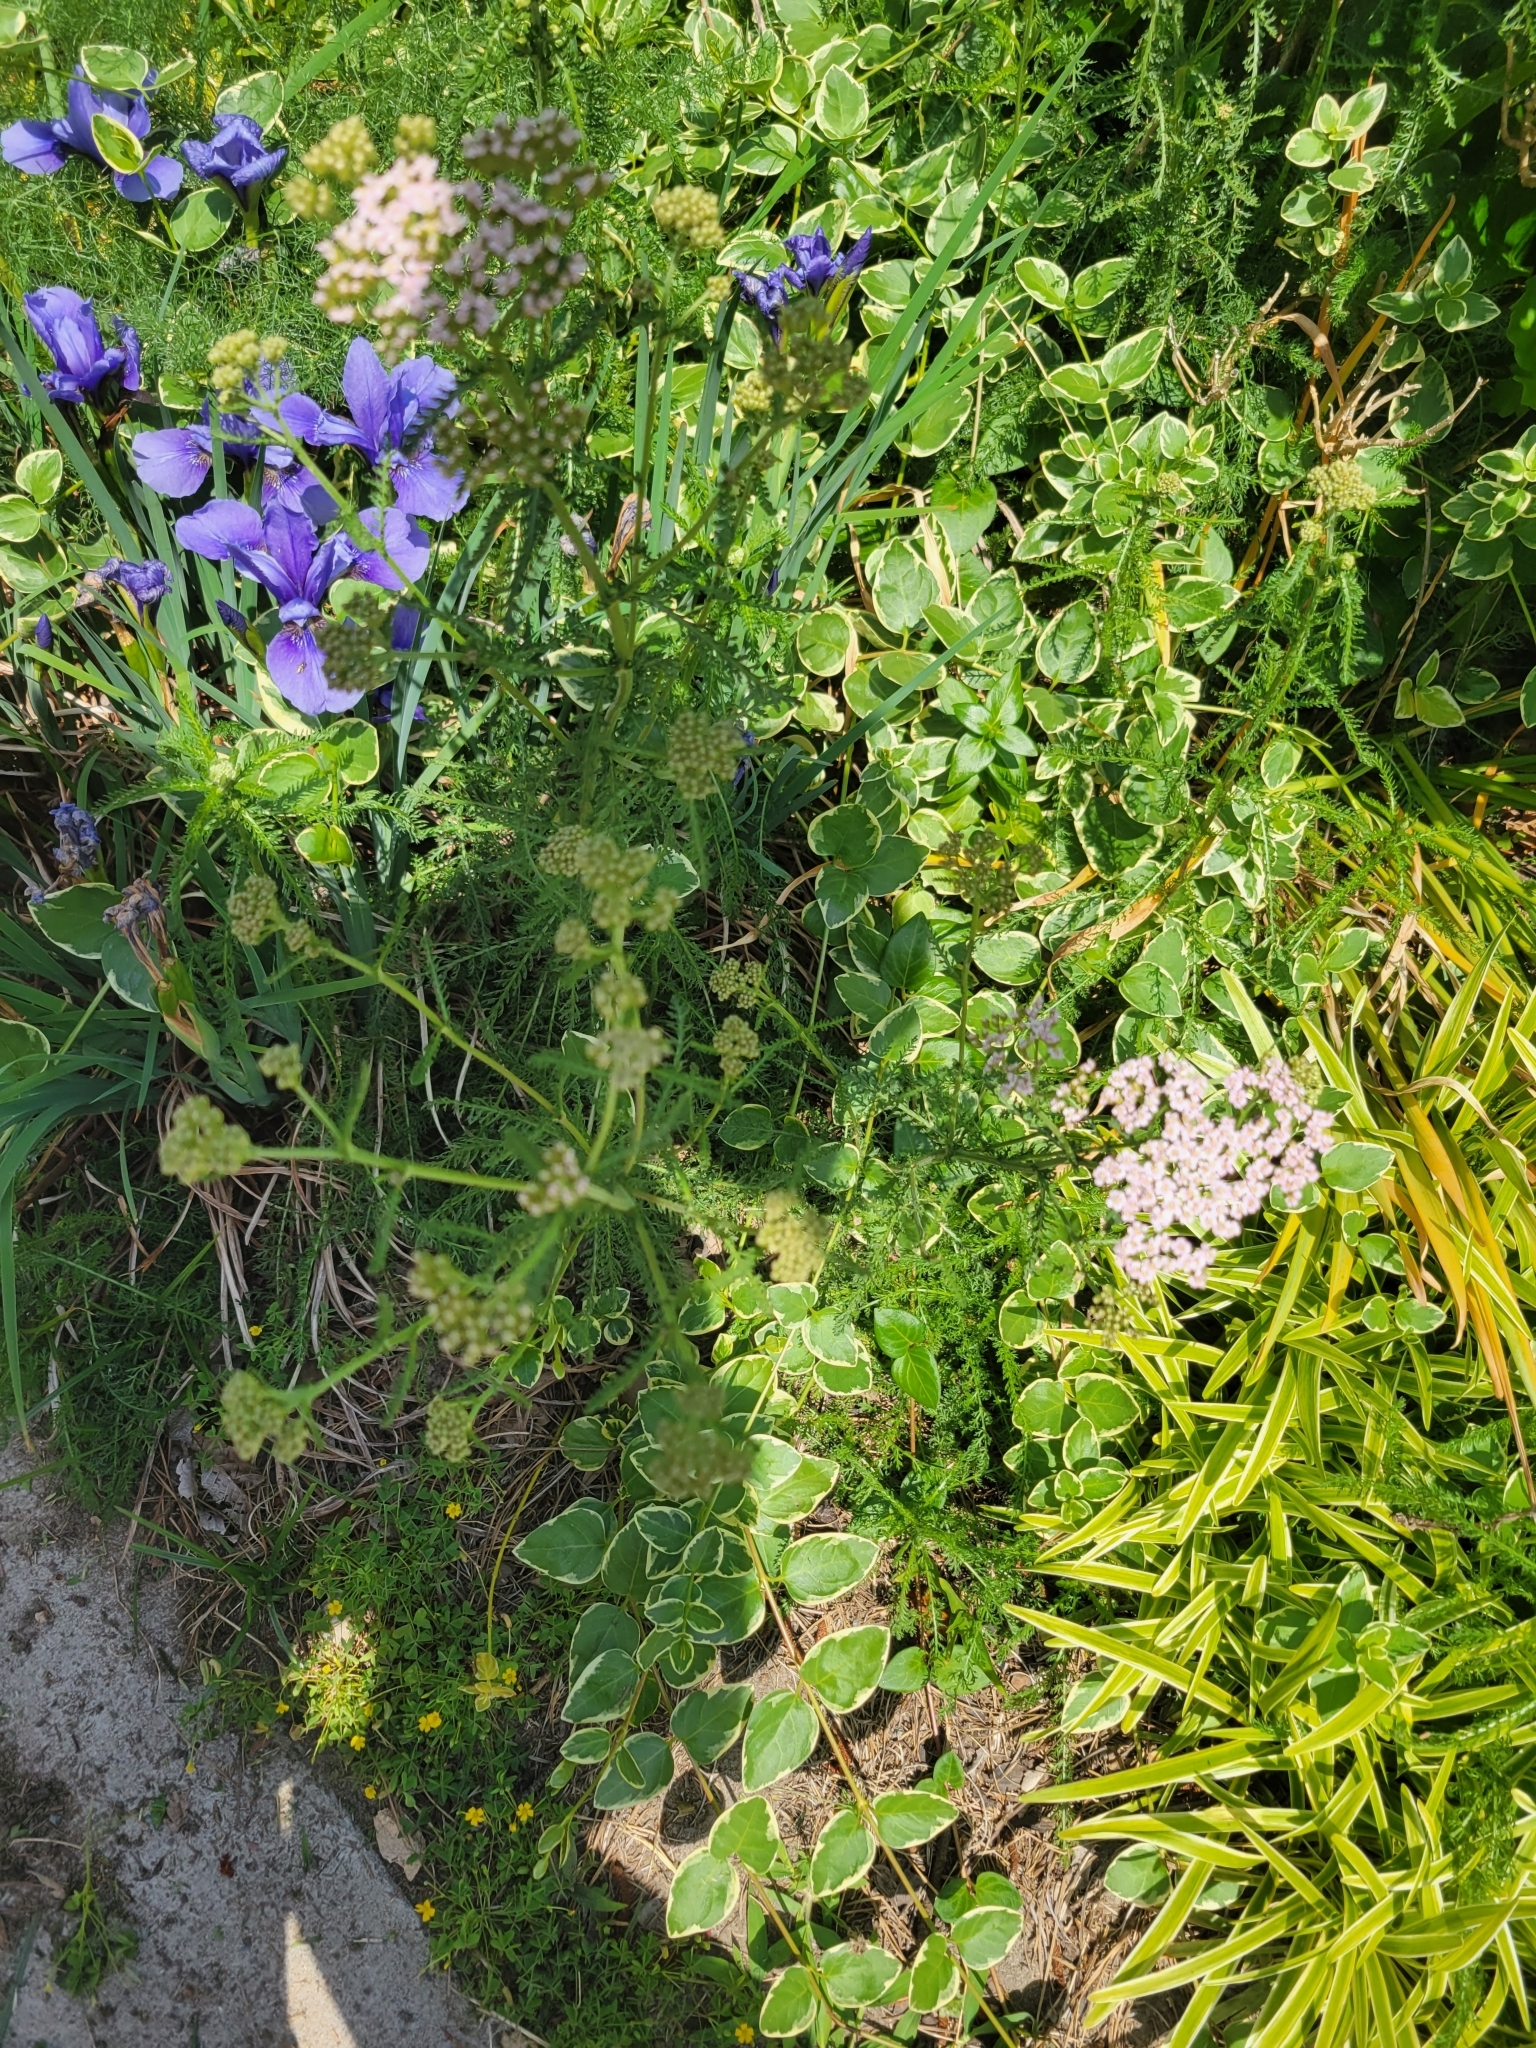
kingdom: Plantae
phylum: Tracheophyta
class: Magnoliopsida
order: Asterales
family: Asteraceae
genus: Achillea
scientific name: Achillea millefolium
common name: Yarrow
